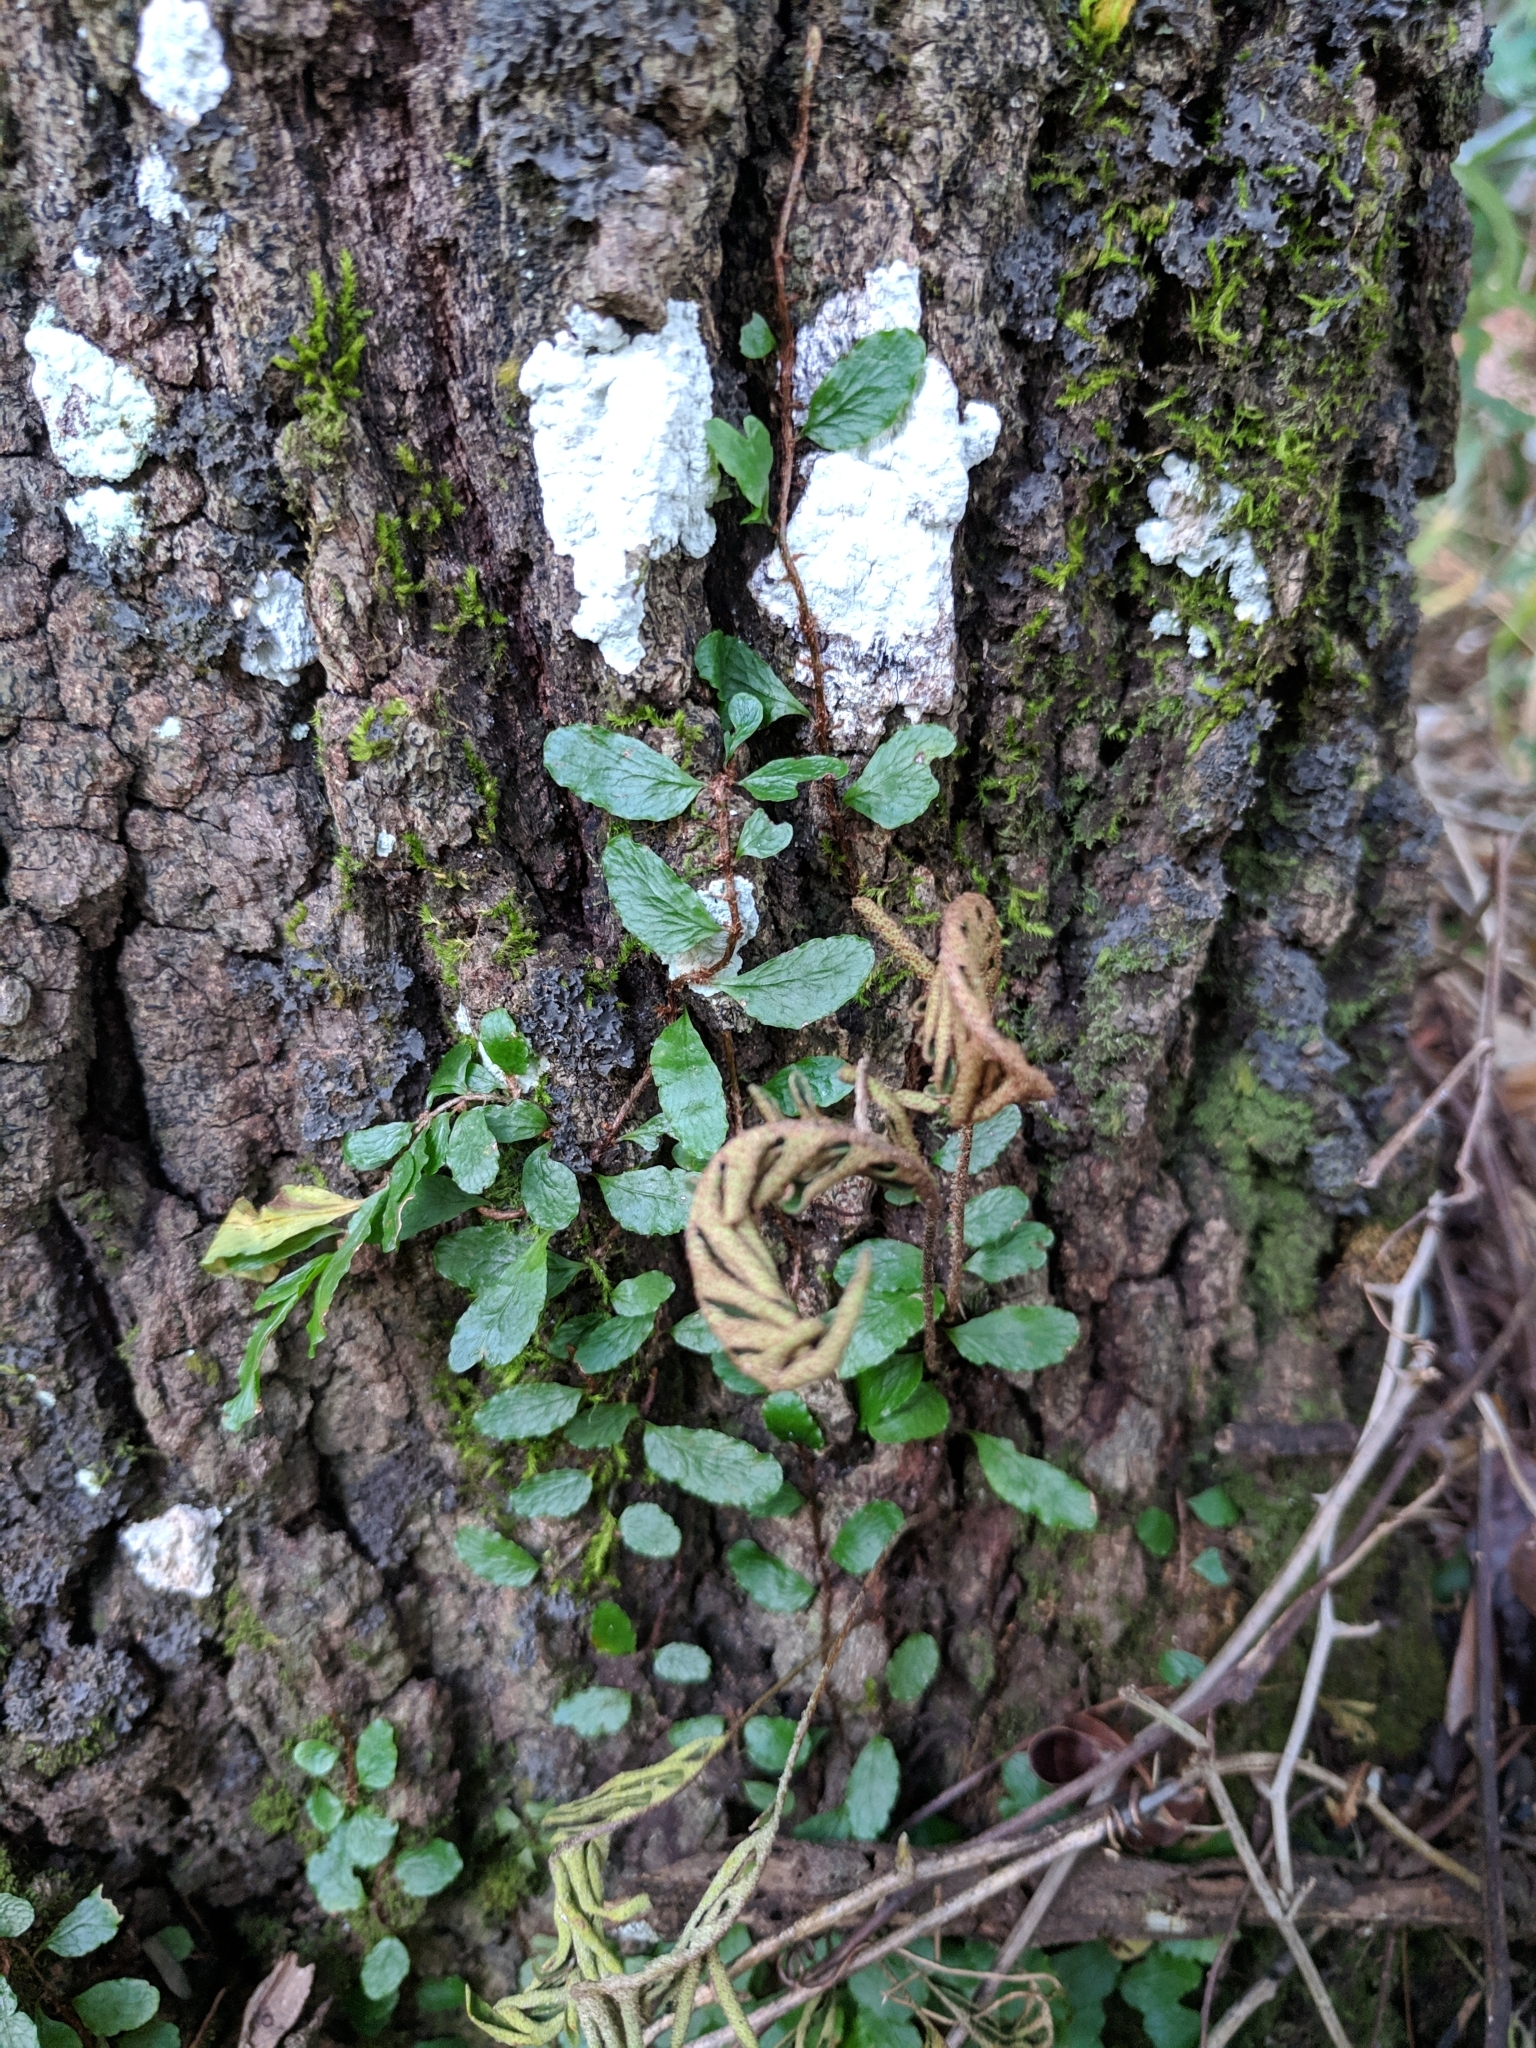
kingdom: Plantae
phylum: Tracheophyta
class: Polypodiopsida
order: Polypodiales
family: Polypodiaceae
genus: Microgramma
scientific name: Microgramma heterophylla
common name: Clinging snakefern
